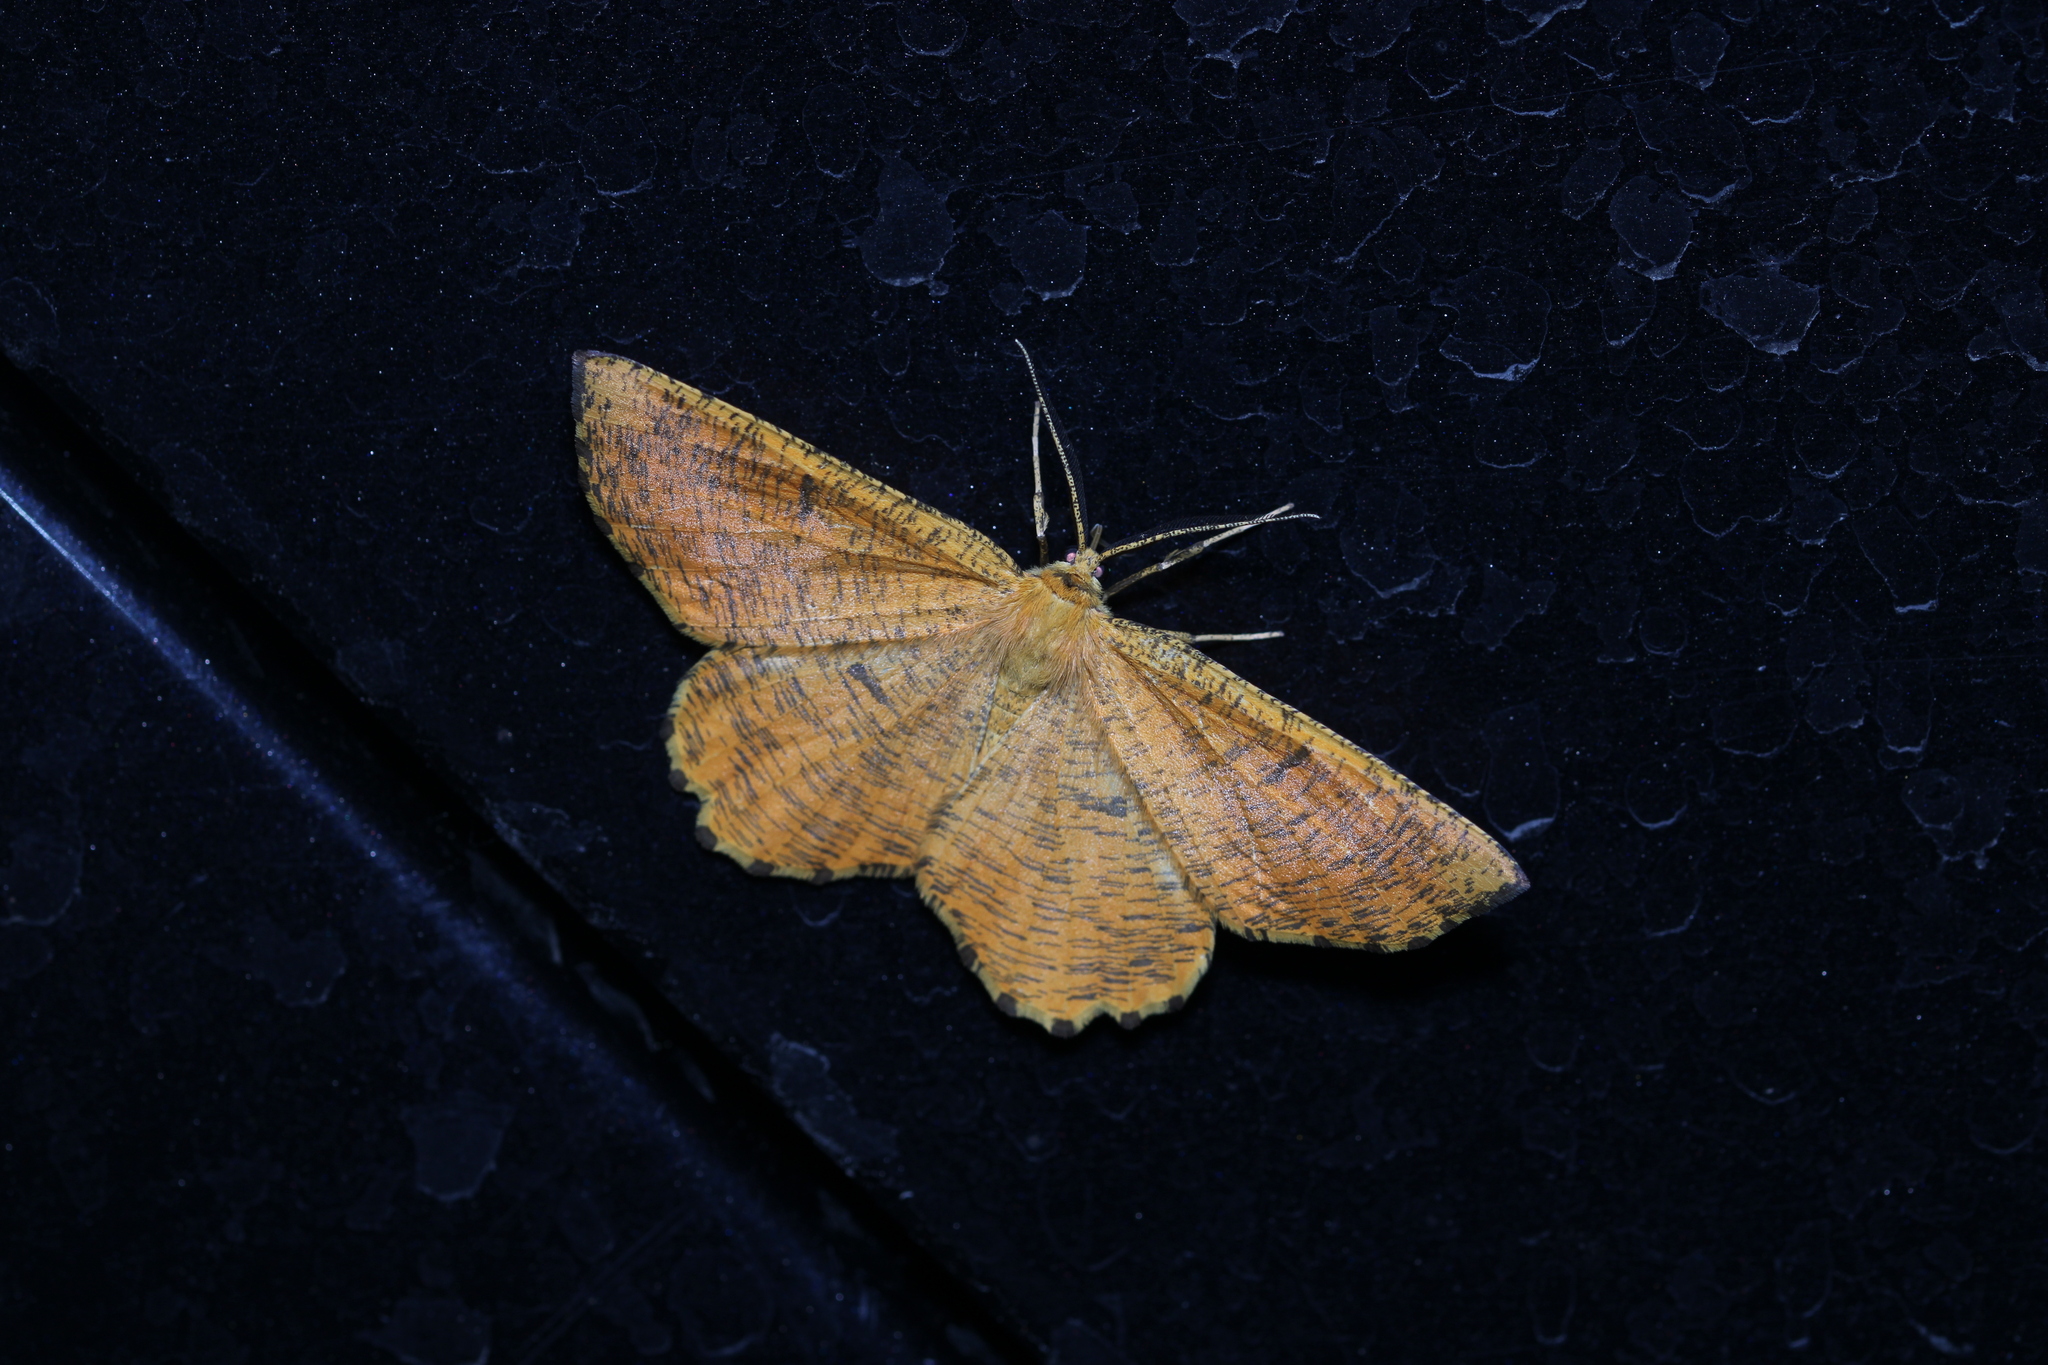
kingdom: Animalia
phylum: Arthropoda
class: Insecta
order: Lepidoptera
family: Geometridae
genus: Angerona
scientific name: Angerona prunaria
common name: Orange moth
